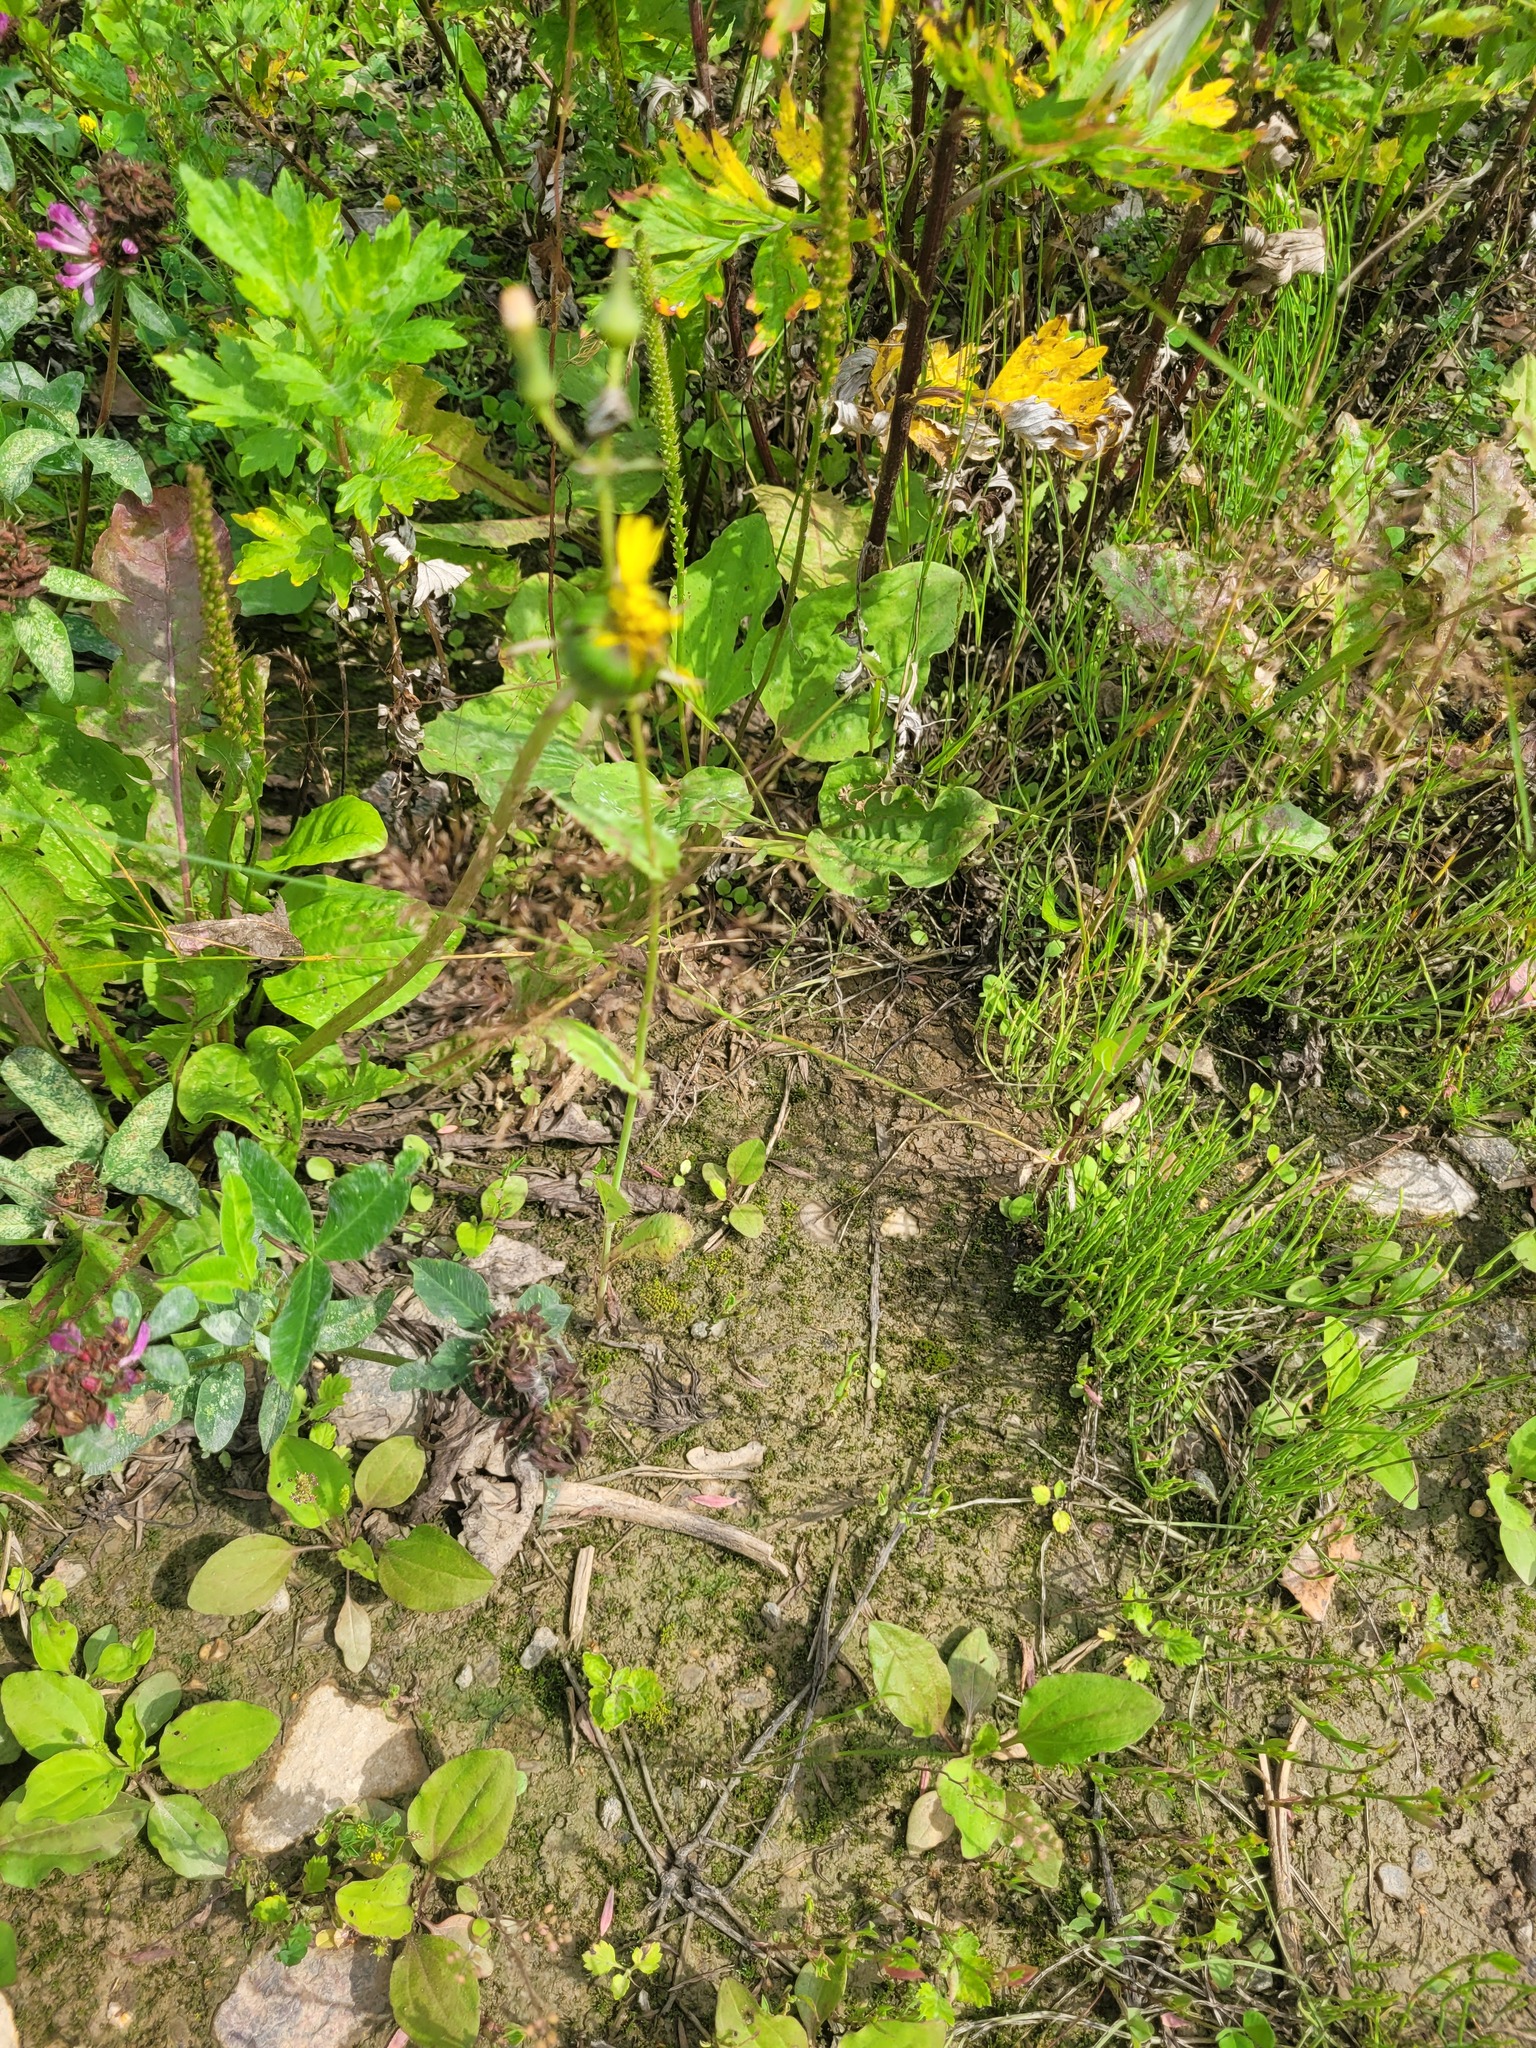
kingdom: Plantae
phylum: Tracheophyta
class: Magnoliopsida
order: Lamiales
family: Plantaginaceae
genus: Plantago
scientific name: Plantago major
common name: Common plantain
